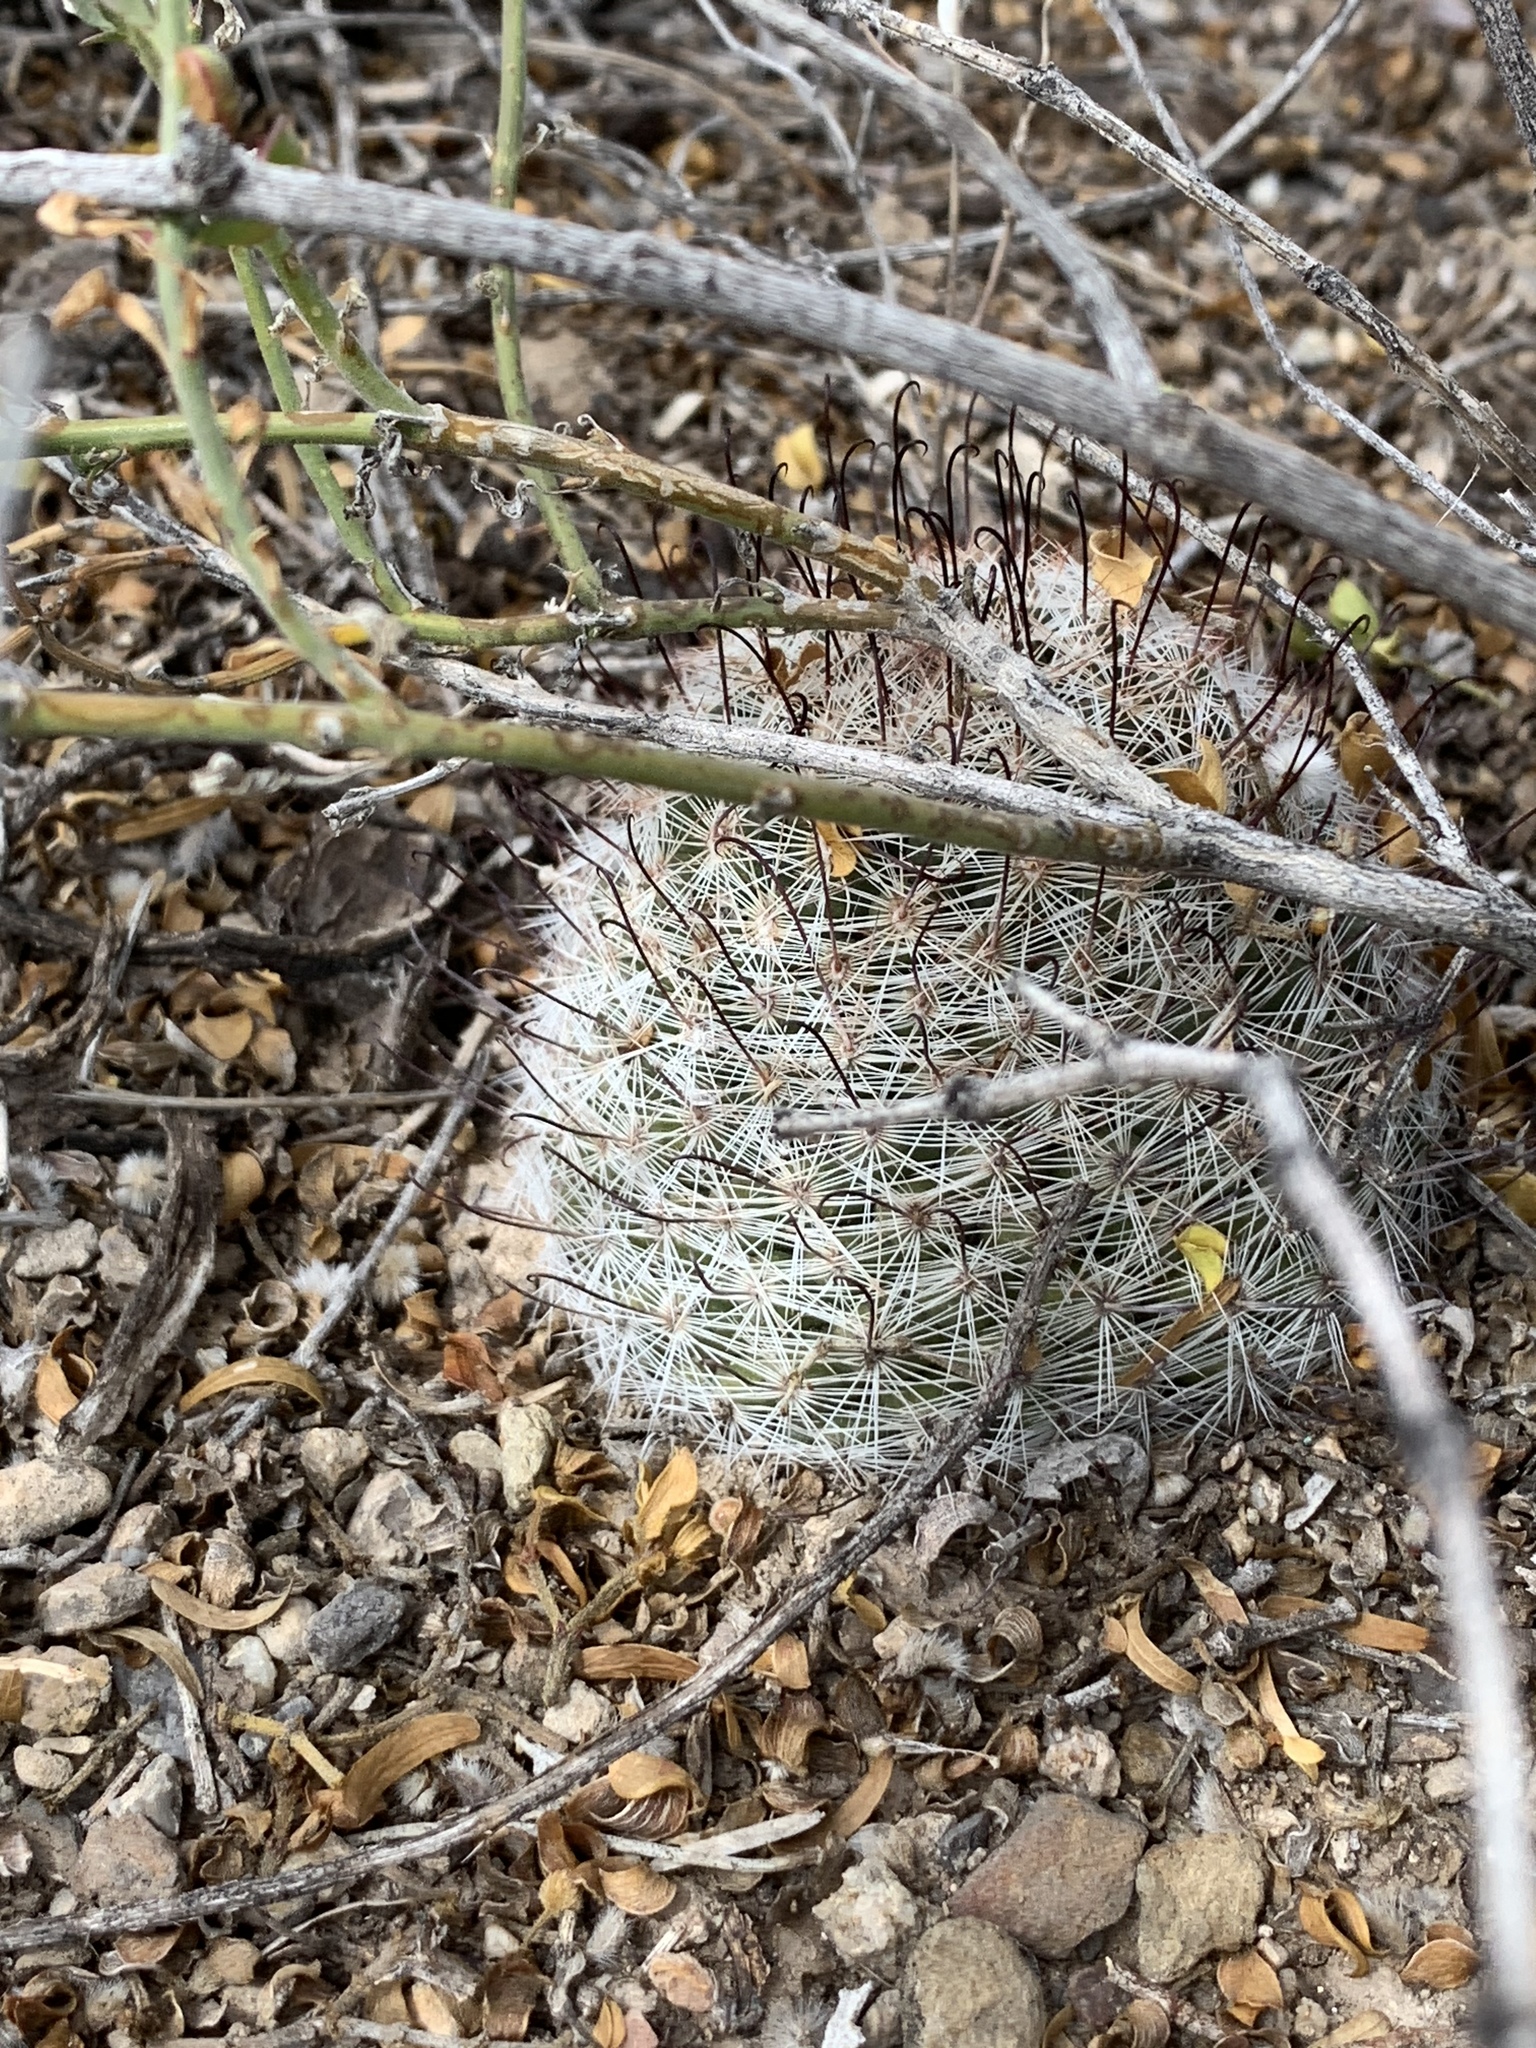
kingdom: Plantae
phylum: Tracheophyta
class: Magnoliopsida
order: Caryophyllales
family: Cactaceae
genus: Cochemiea
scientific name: Cochemiea grahamii
